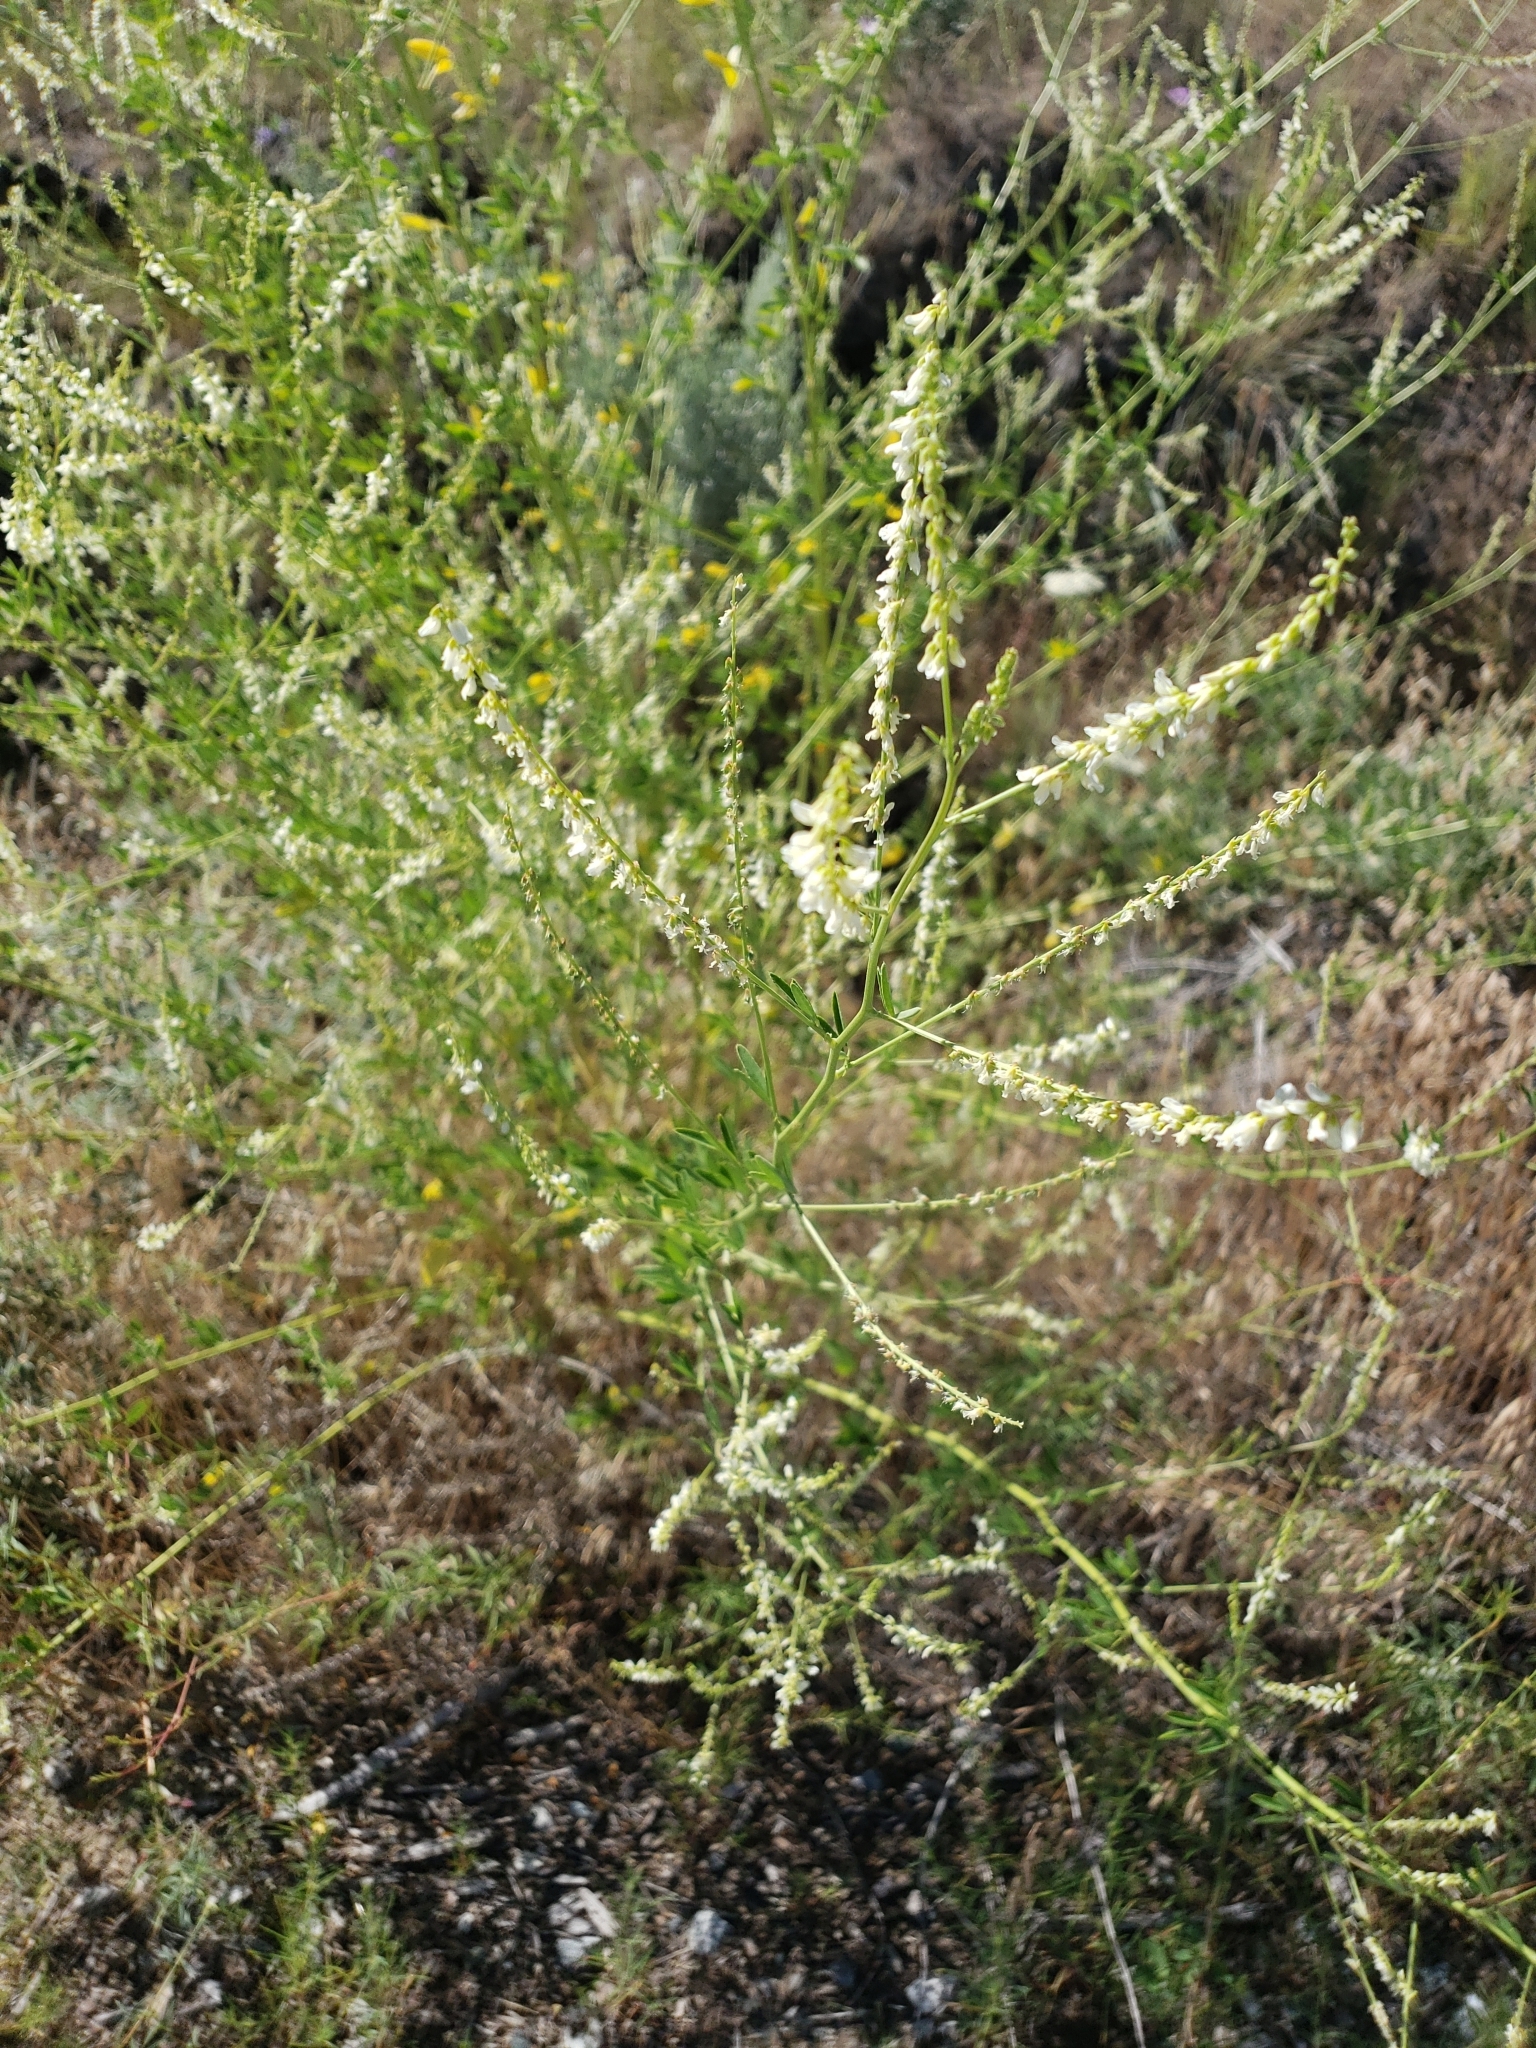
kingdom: Plantae
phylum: Tracheophyta
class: Magnoliopsida
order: Fabales
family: Fabaceae
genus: Melilotus
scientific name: Melilotus albus
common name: White melilot
